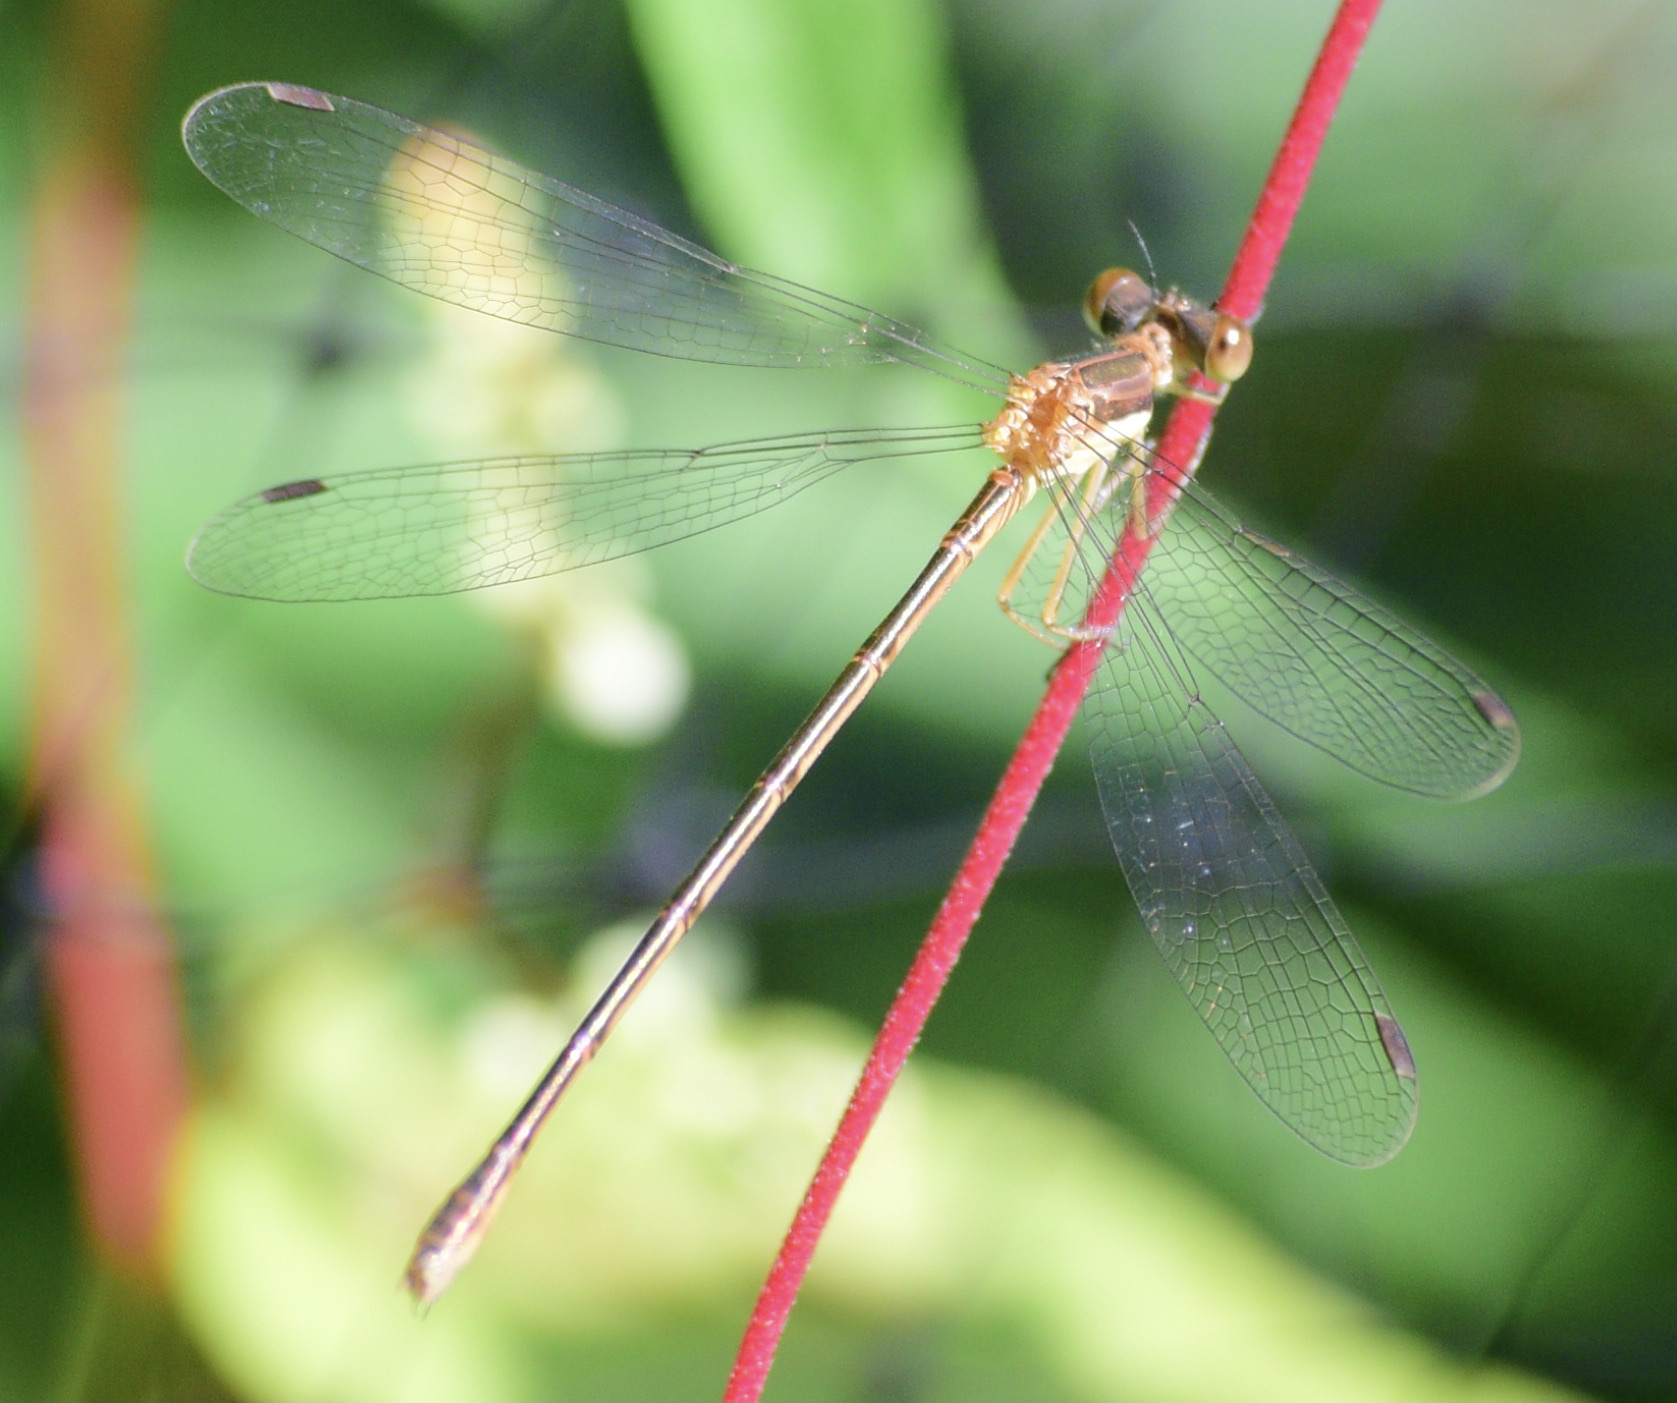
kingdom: Animalia
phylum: Arthropoda
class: Insecta
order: Odonata
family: Lestidae
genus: Lestes
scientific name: Lestes rectangularis
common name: Slender spreadwing
